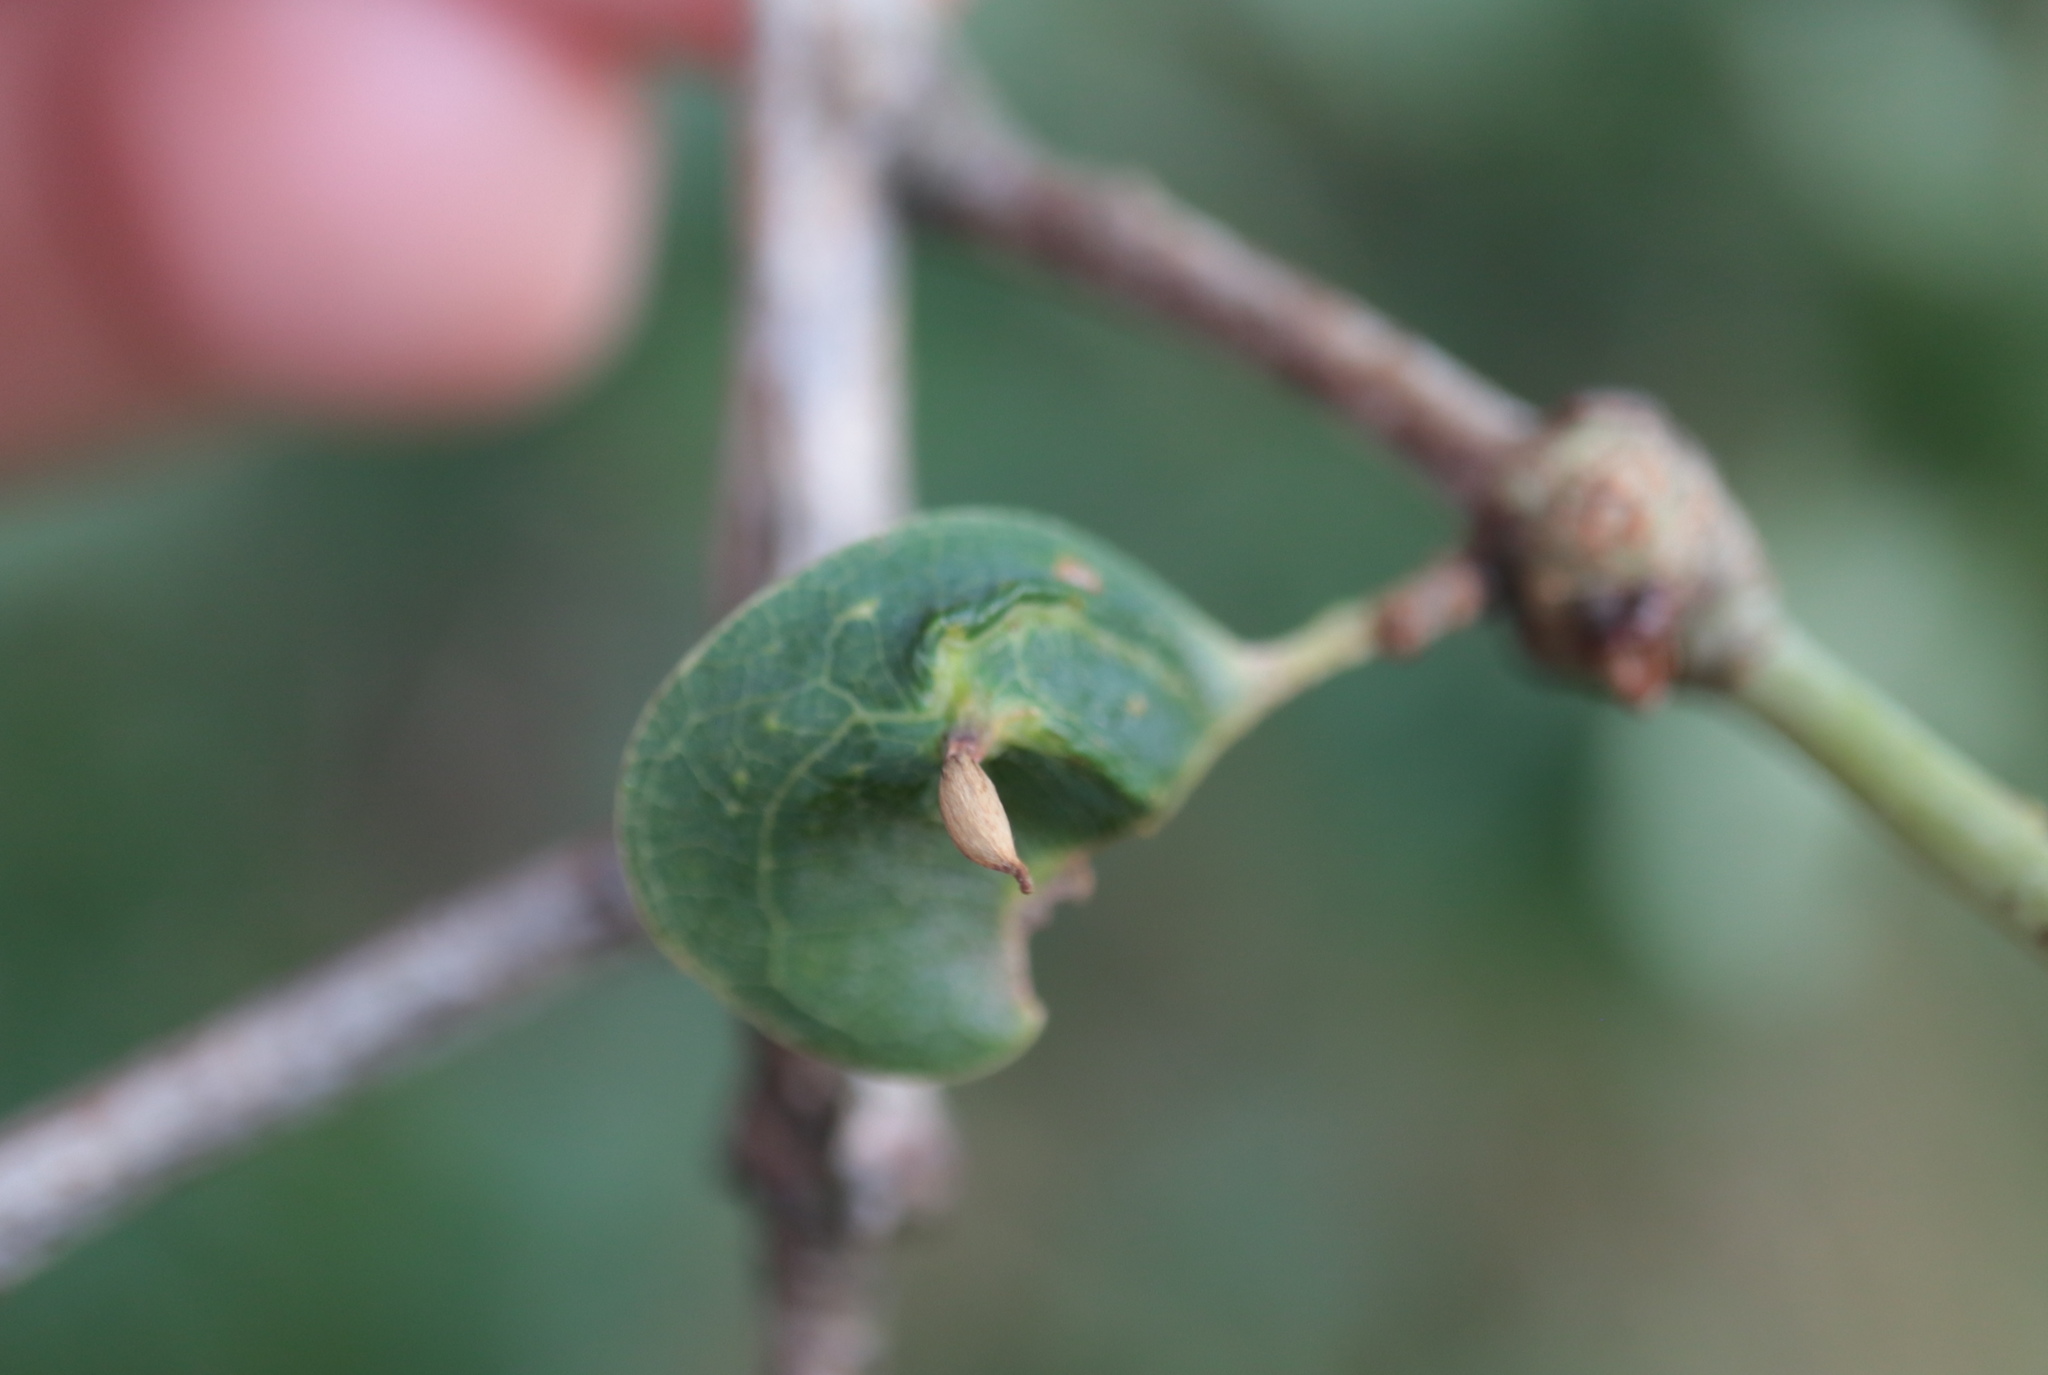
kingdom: Animalia
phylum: Arthropoda
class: Insecta
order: Hymenoptera
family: Cynipidae
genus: Andricus
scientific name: Andricus
